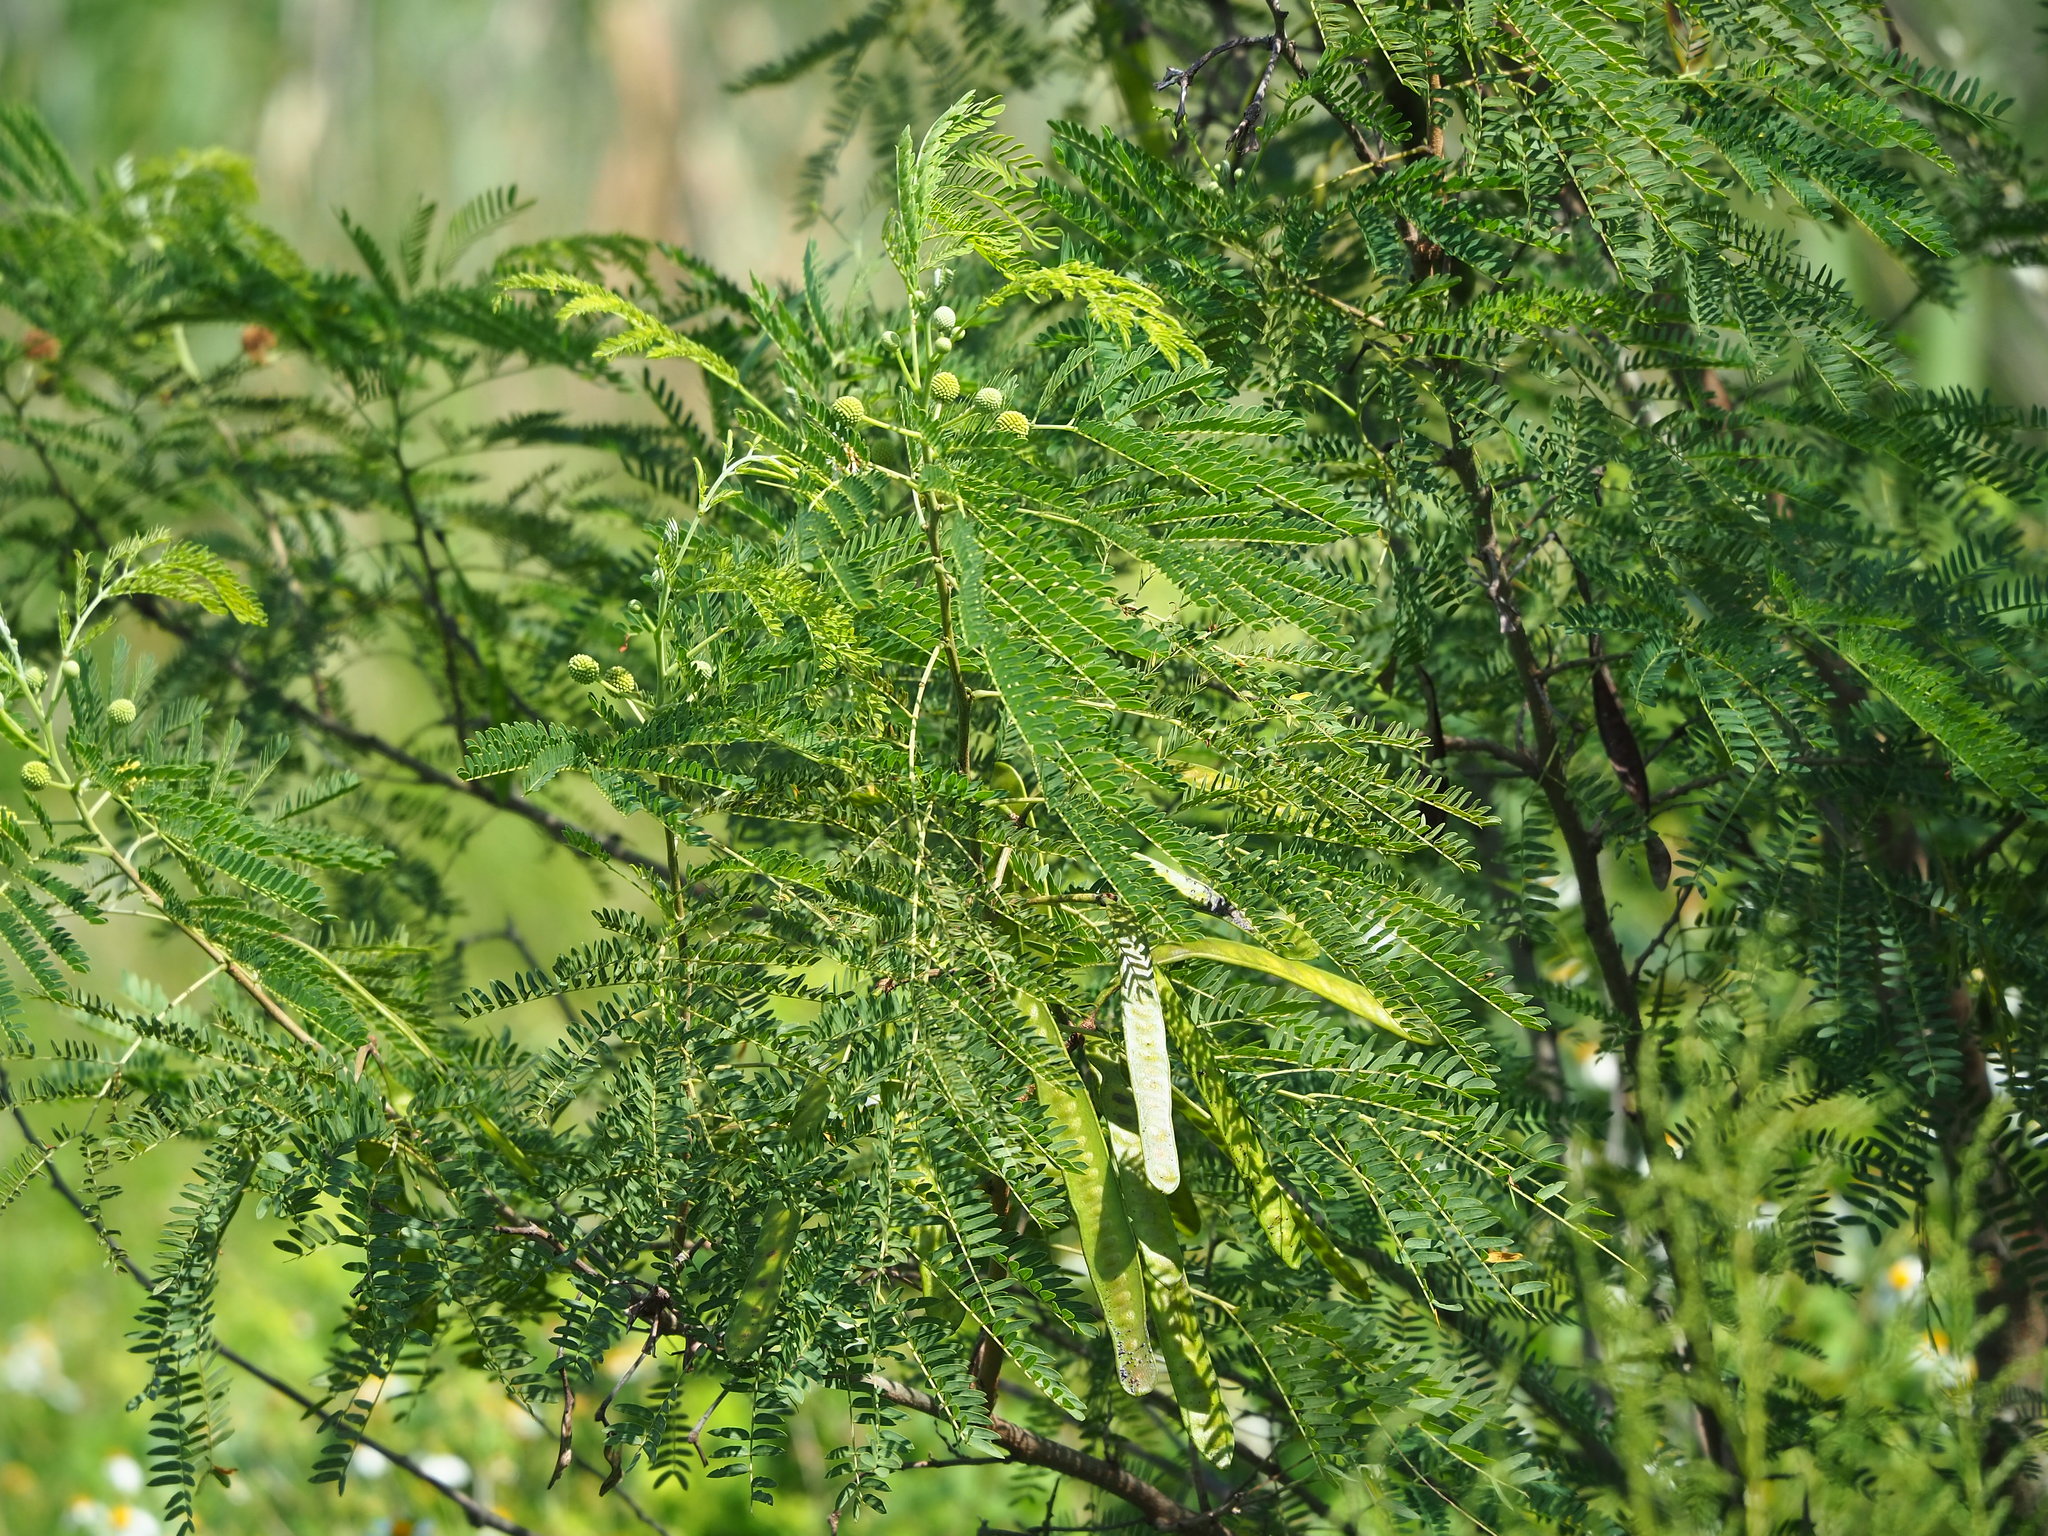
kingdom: Plantae
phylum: Tracheophyta
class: Magnoliopsida
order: Fabales
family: Fabaceae
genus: Leucaena
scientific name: Leucaena leucocephala
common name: White leadtree
